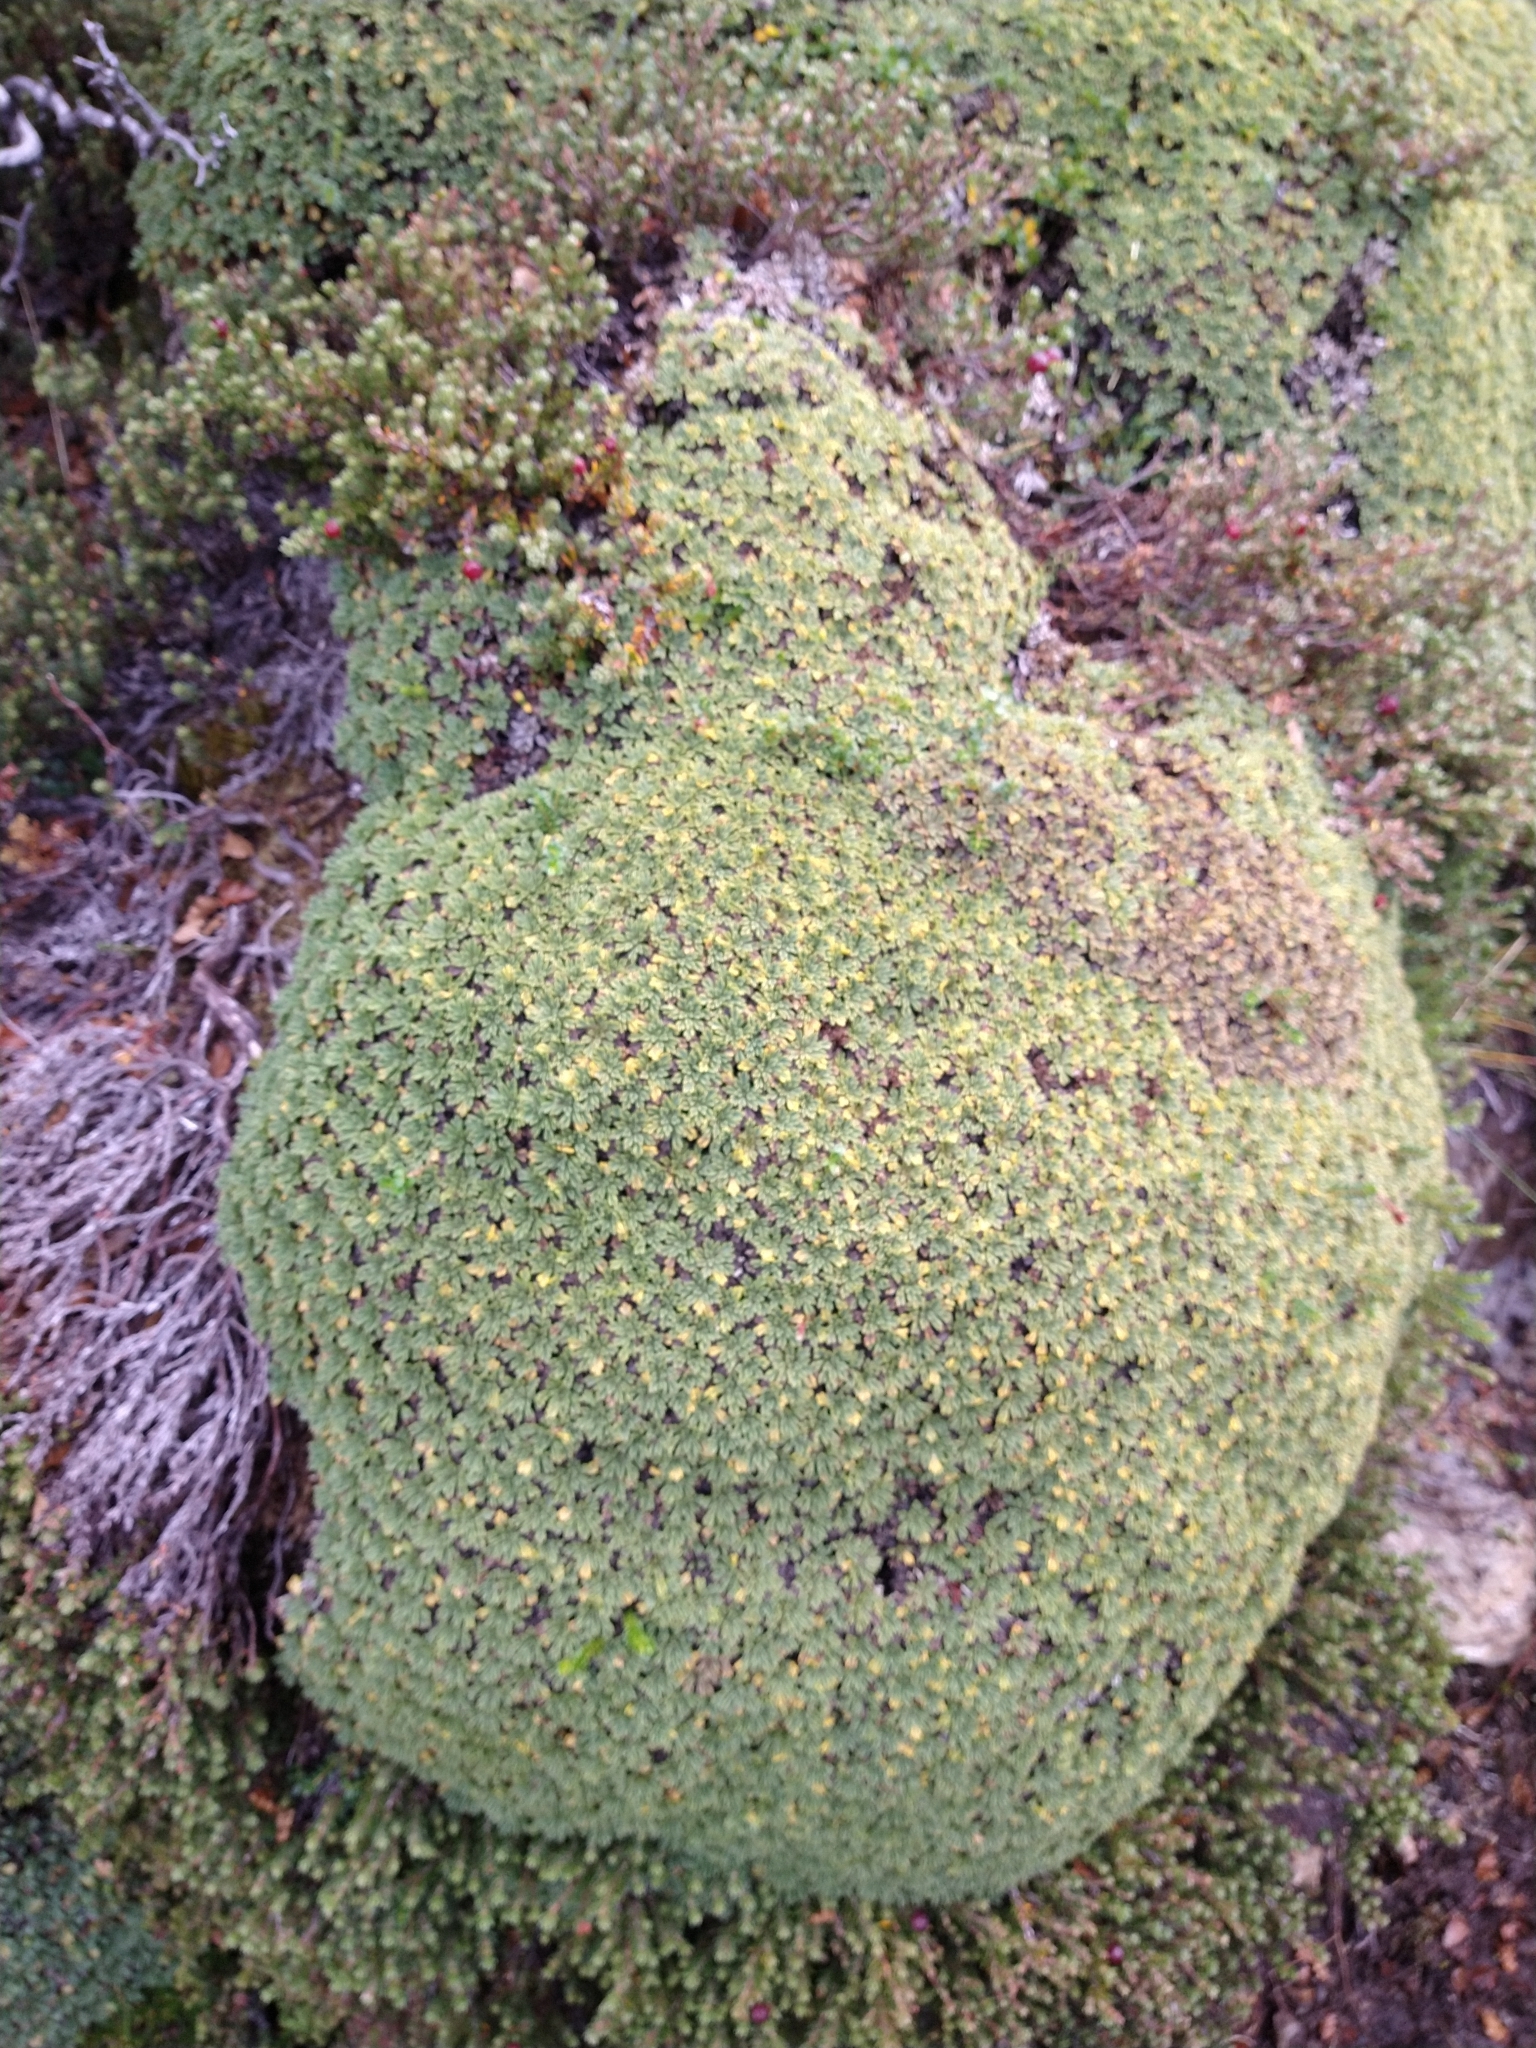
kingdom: Plantae
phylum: Tracheophyta
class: Magnoliopsida
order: Apiales
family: Apiaceae
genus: Bolax
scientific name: Bolax gummifera
